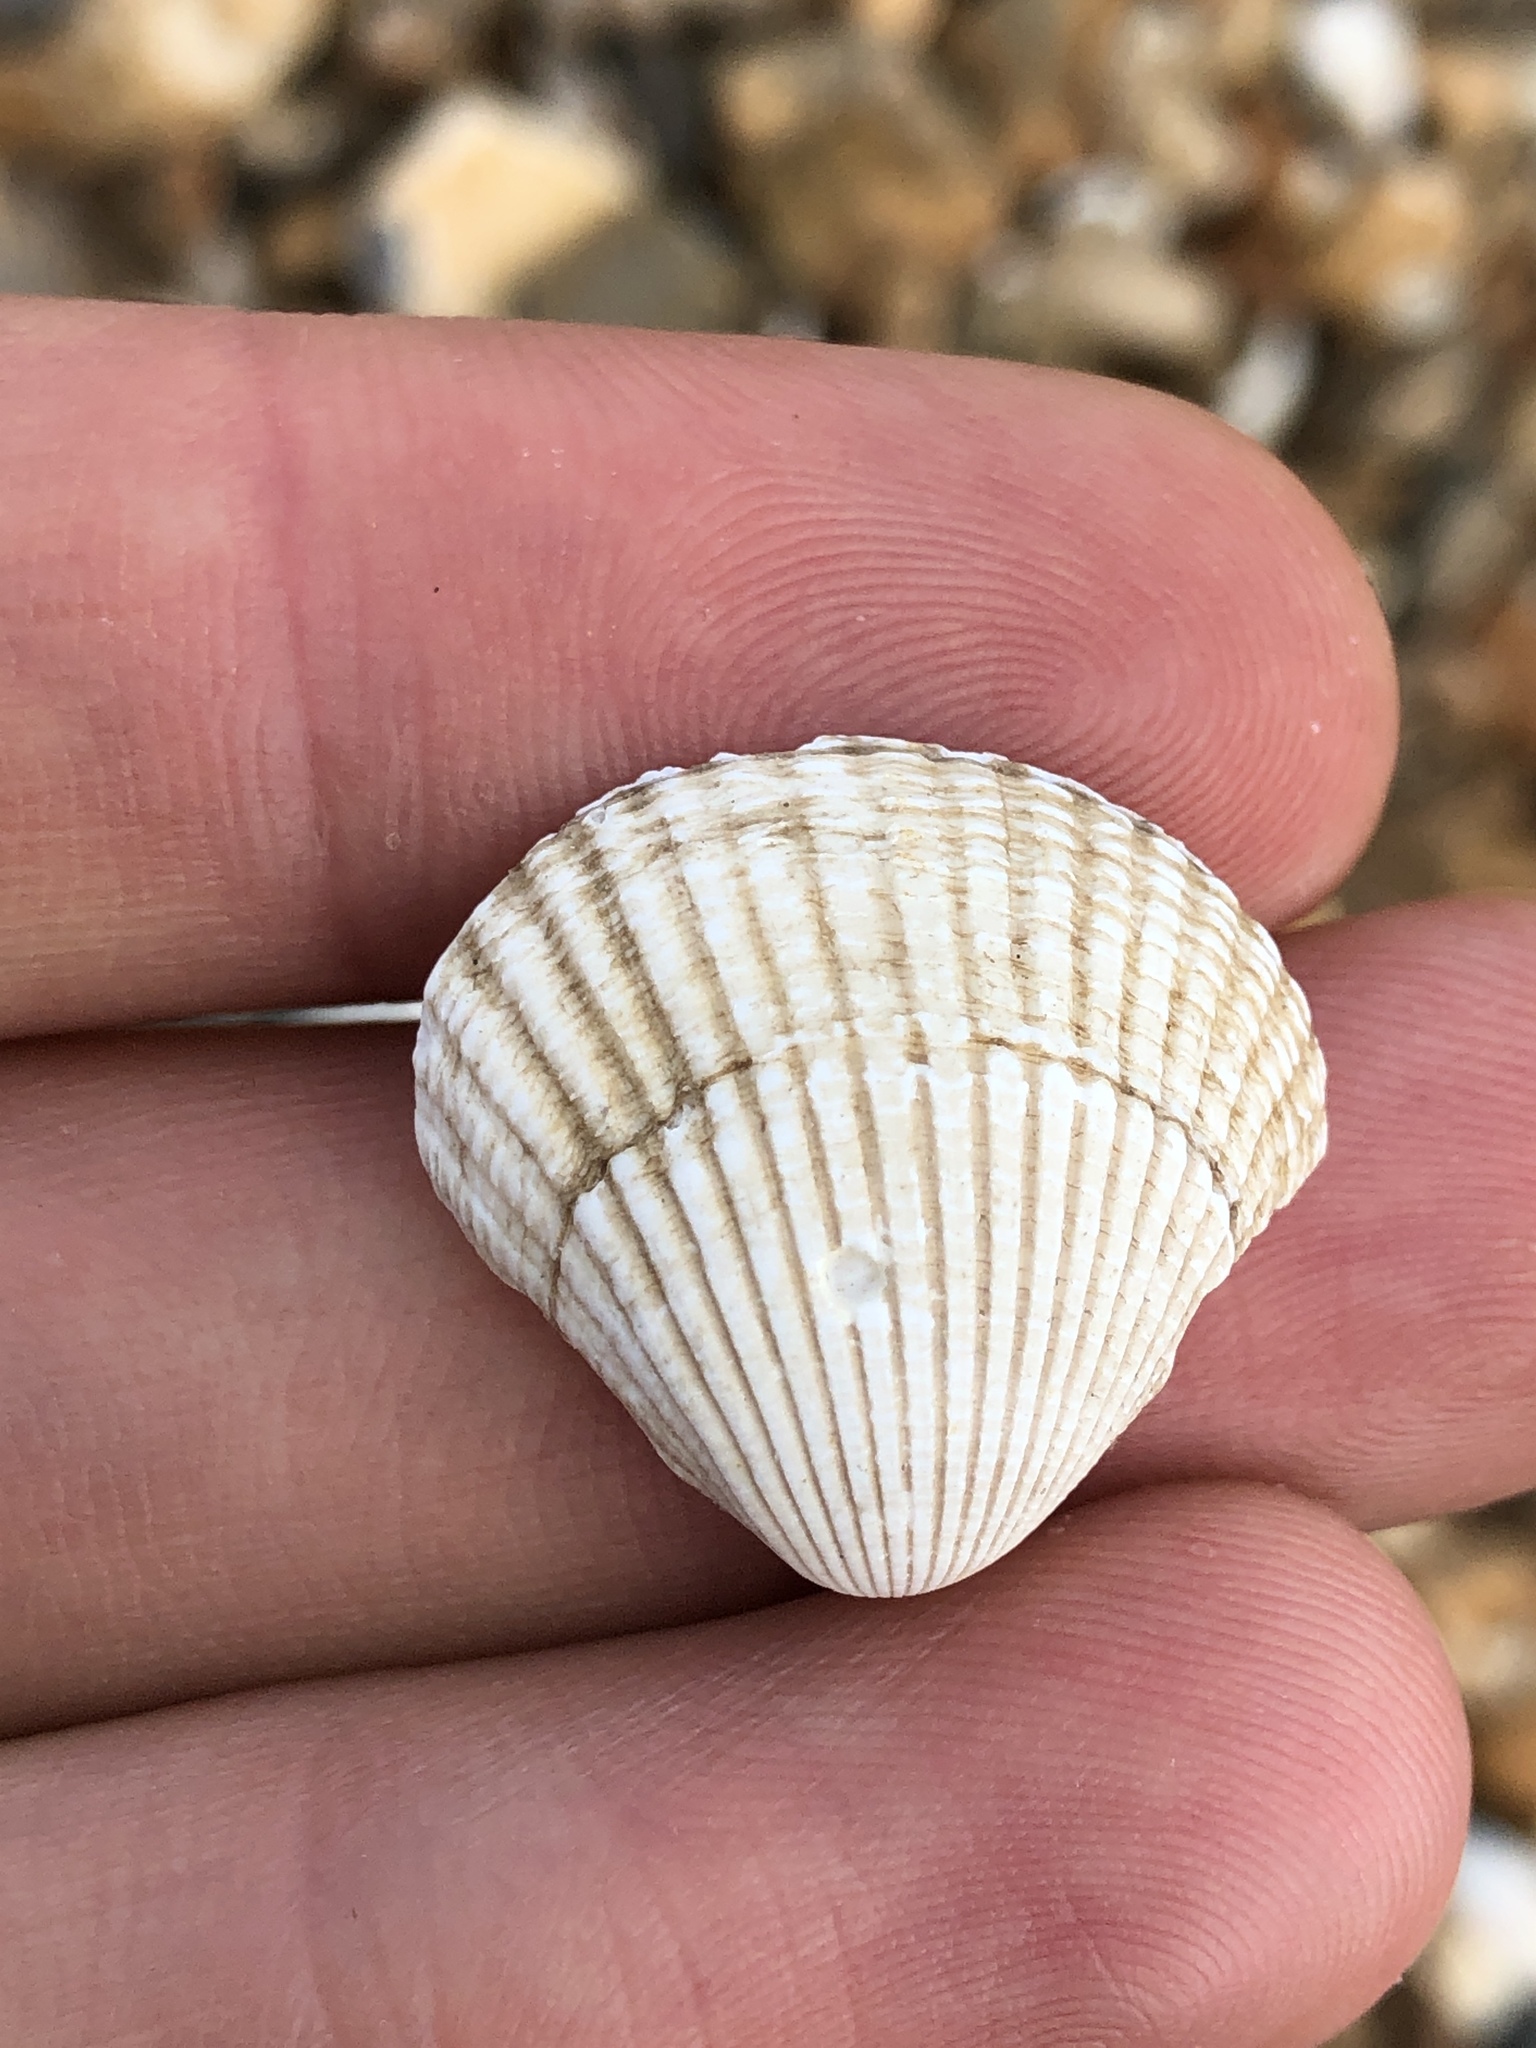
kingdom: Animalia
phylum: Mollusca
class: Bivalvia
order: Cardiida
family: Cardiidae
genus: Cerastoderma
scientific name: Cerastoderma edule
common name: Common cockle
